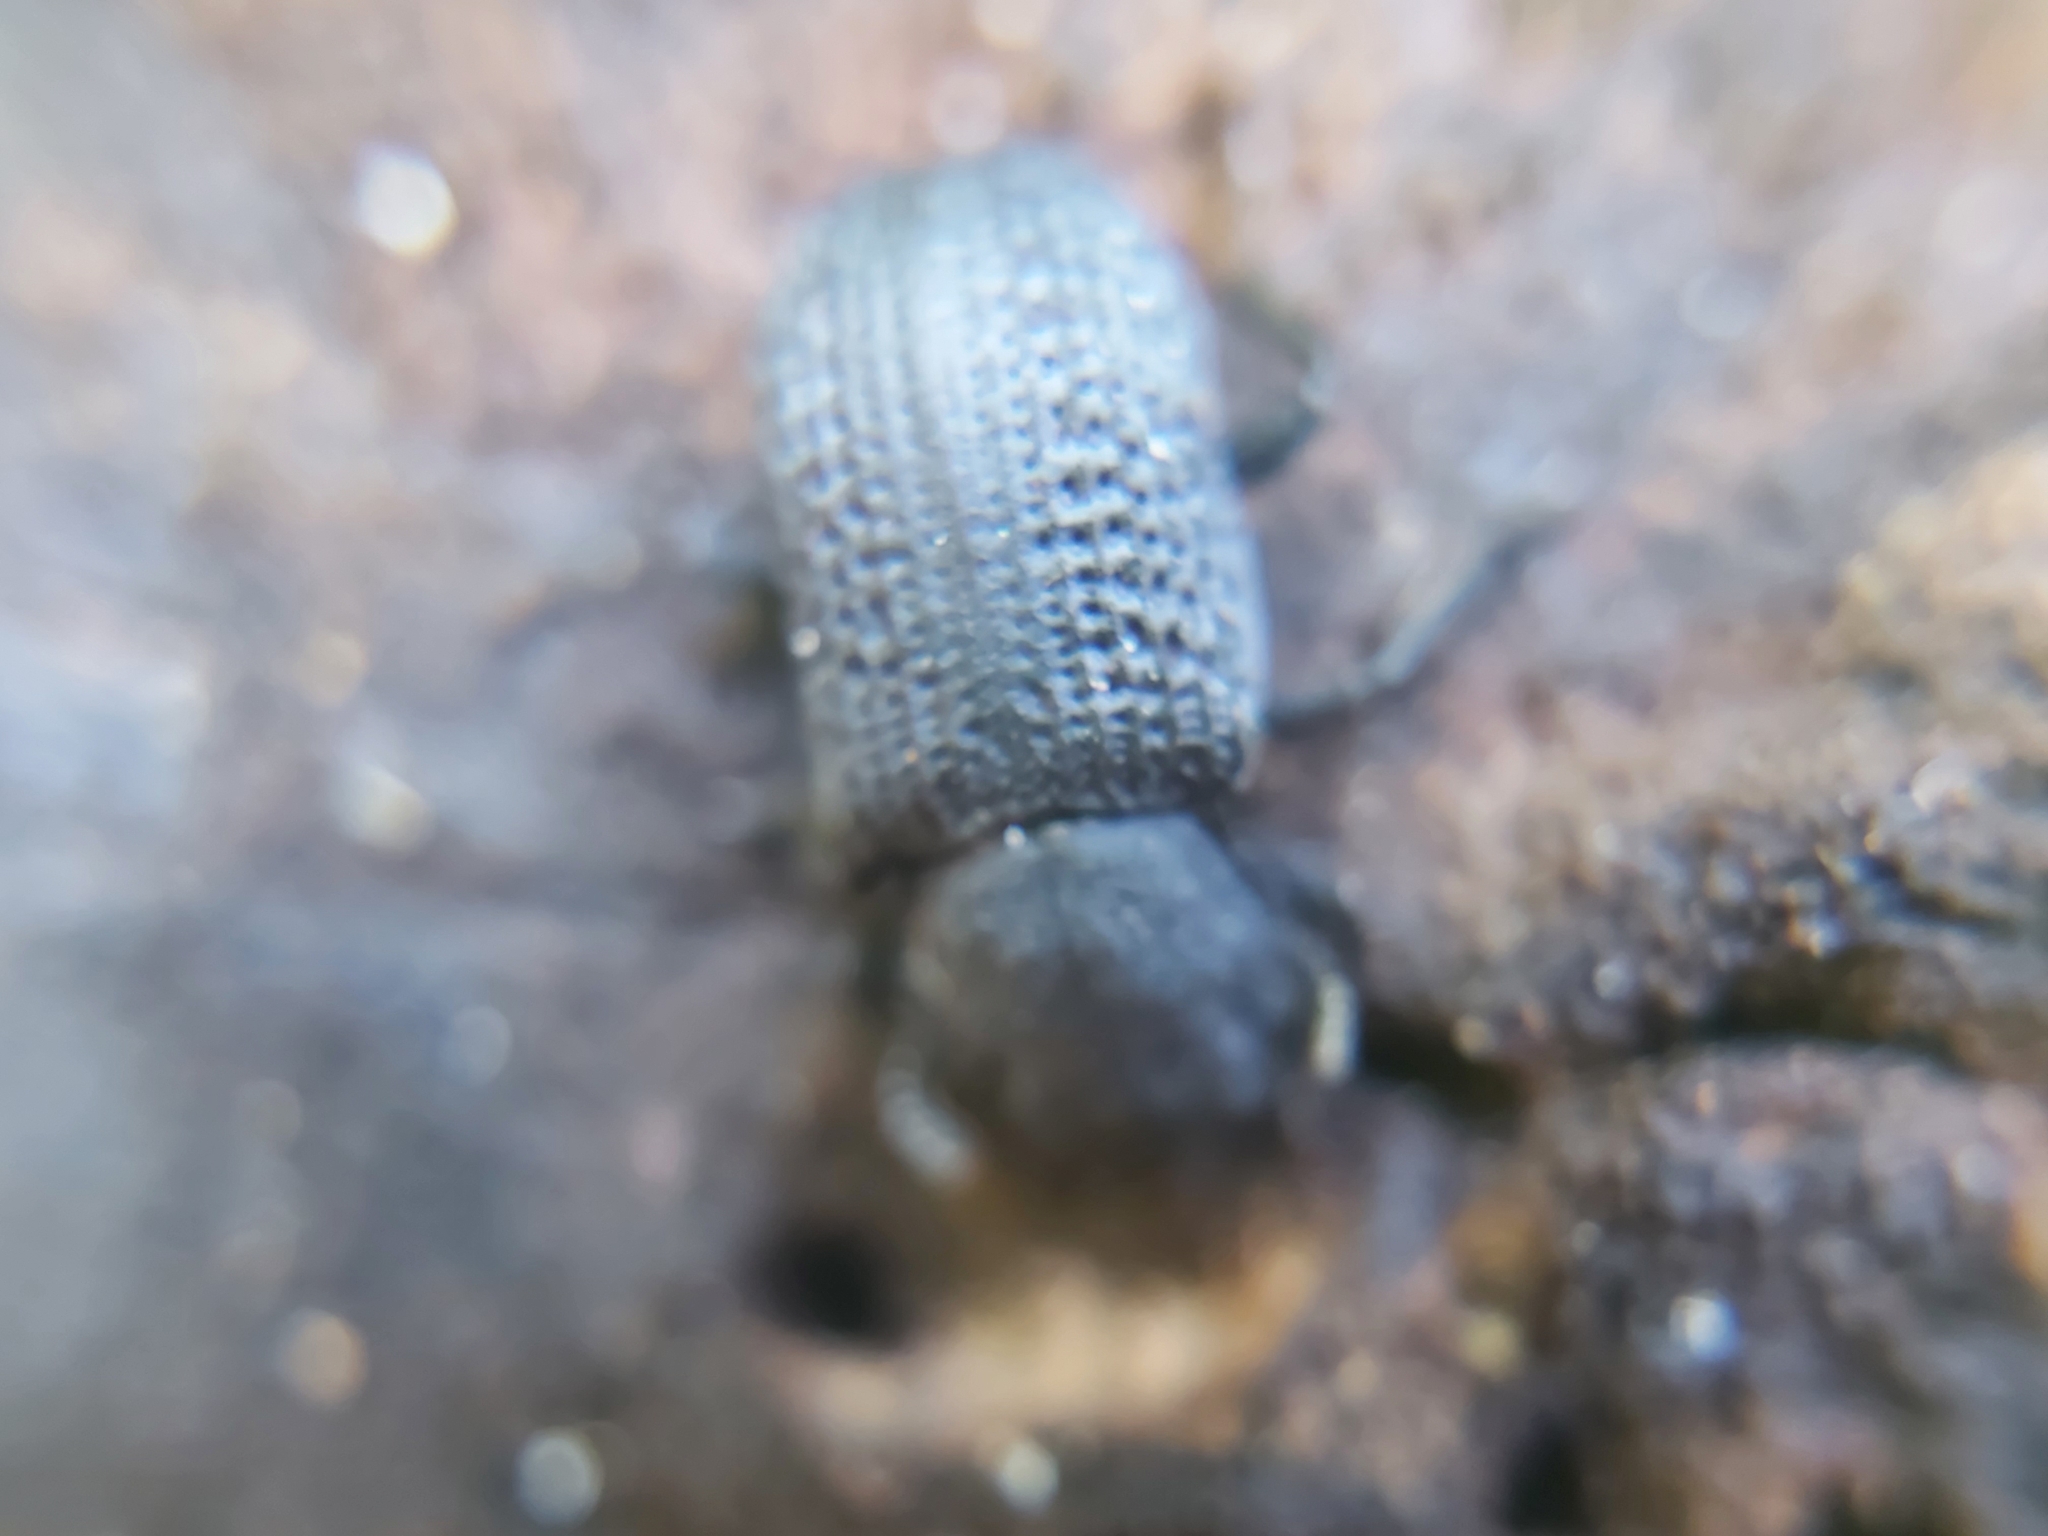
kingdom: Animalia
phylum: Arthropoda
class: Insecta
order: Coleoptera
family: Tenebrionidae
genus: Bolitophagus
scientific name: Bolitophagus reticulatus
